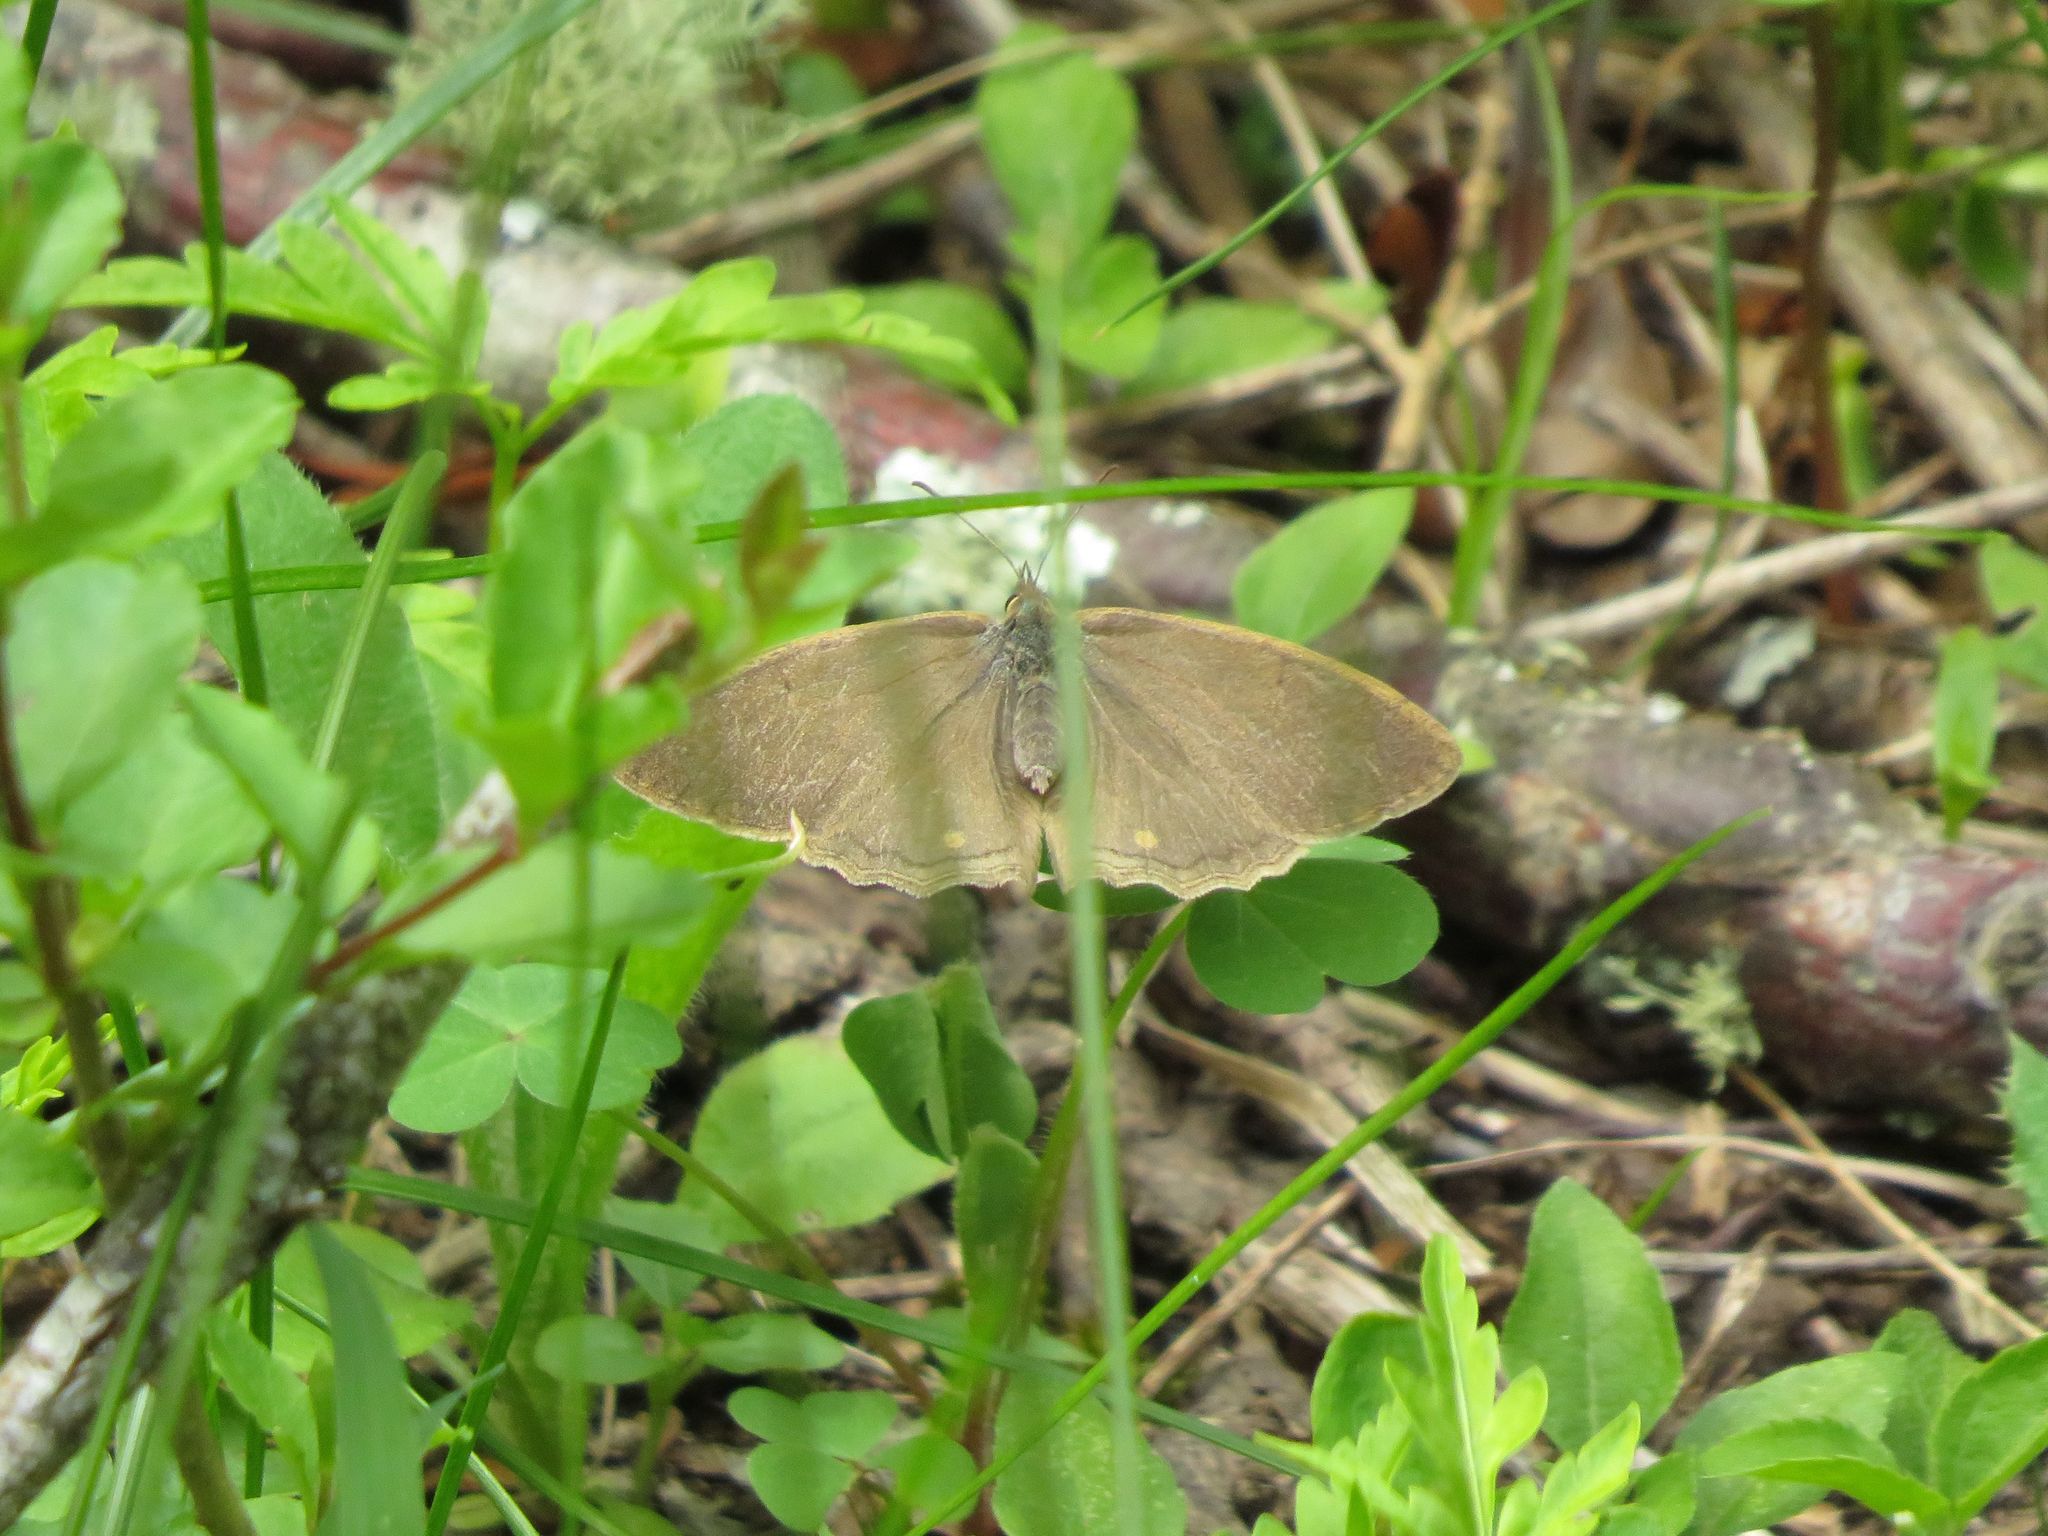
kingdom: Animalia
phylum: Arthropoda
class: Insecta
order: Lepidoptera
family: Nymphalidae
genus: Yphthimoides
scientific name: Yphthimoides celmis
